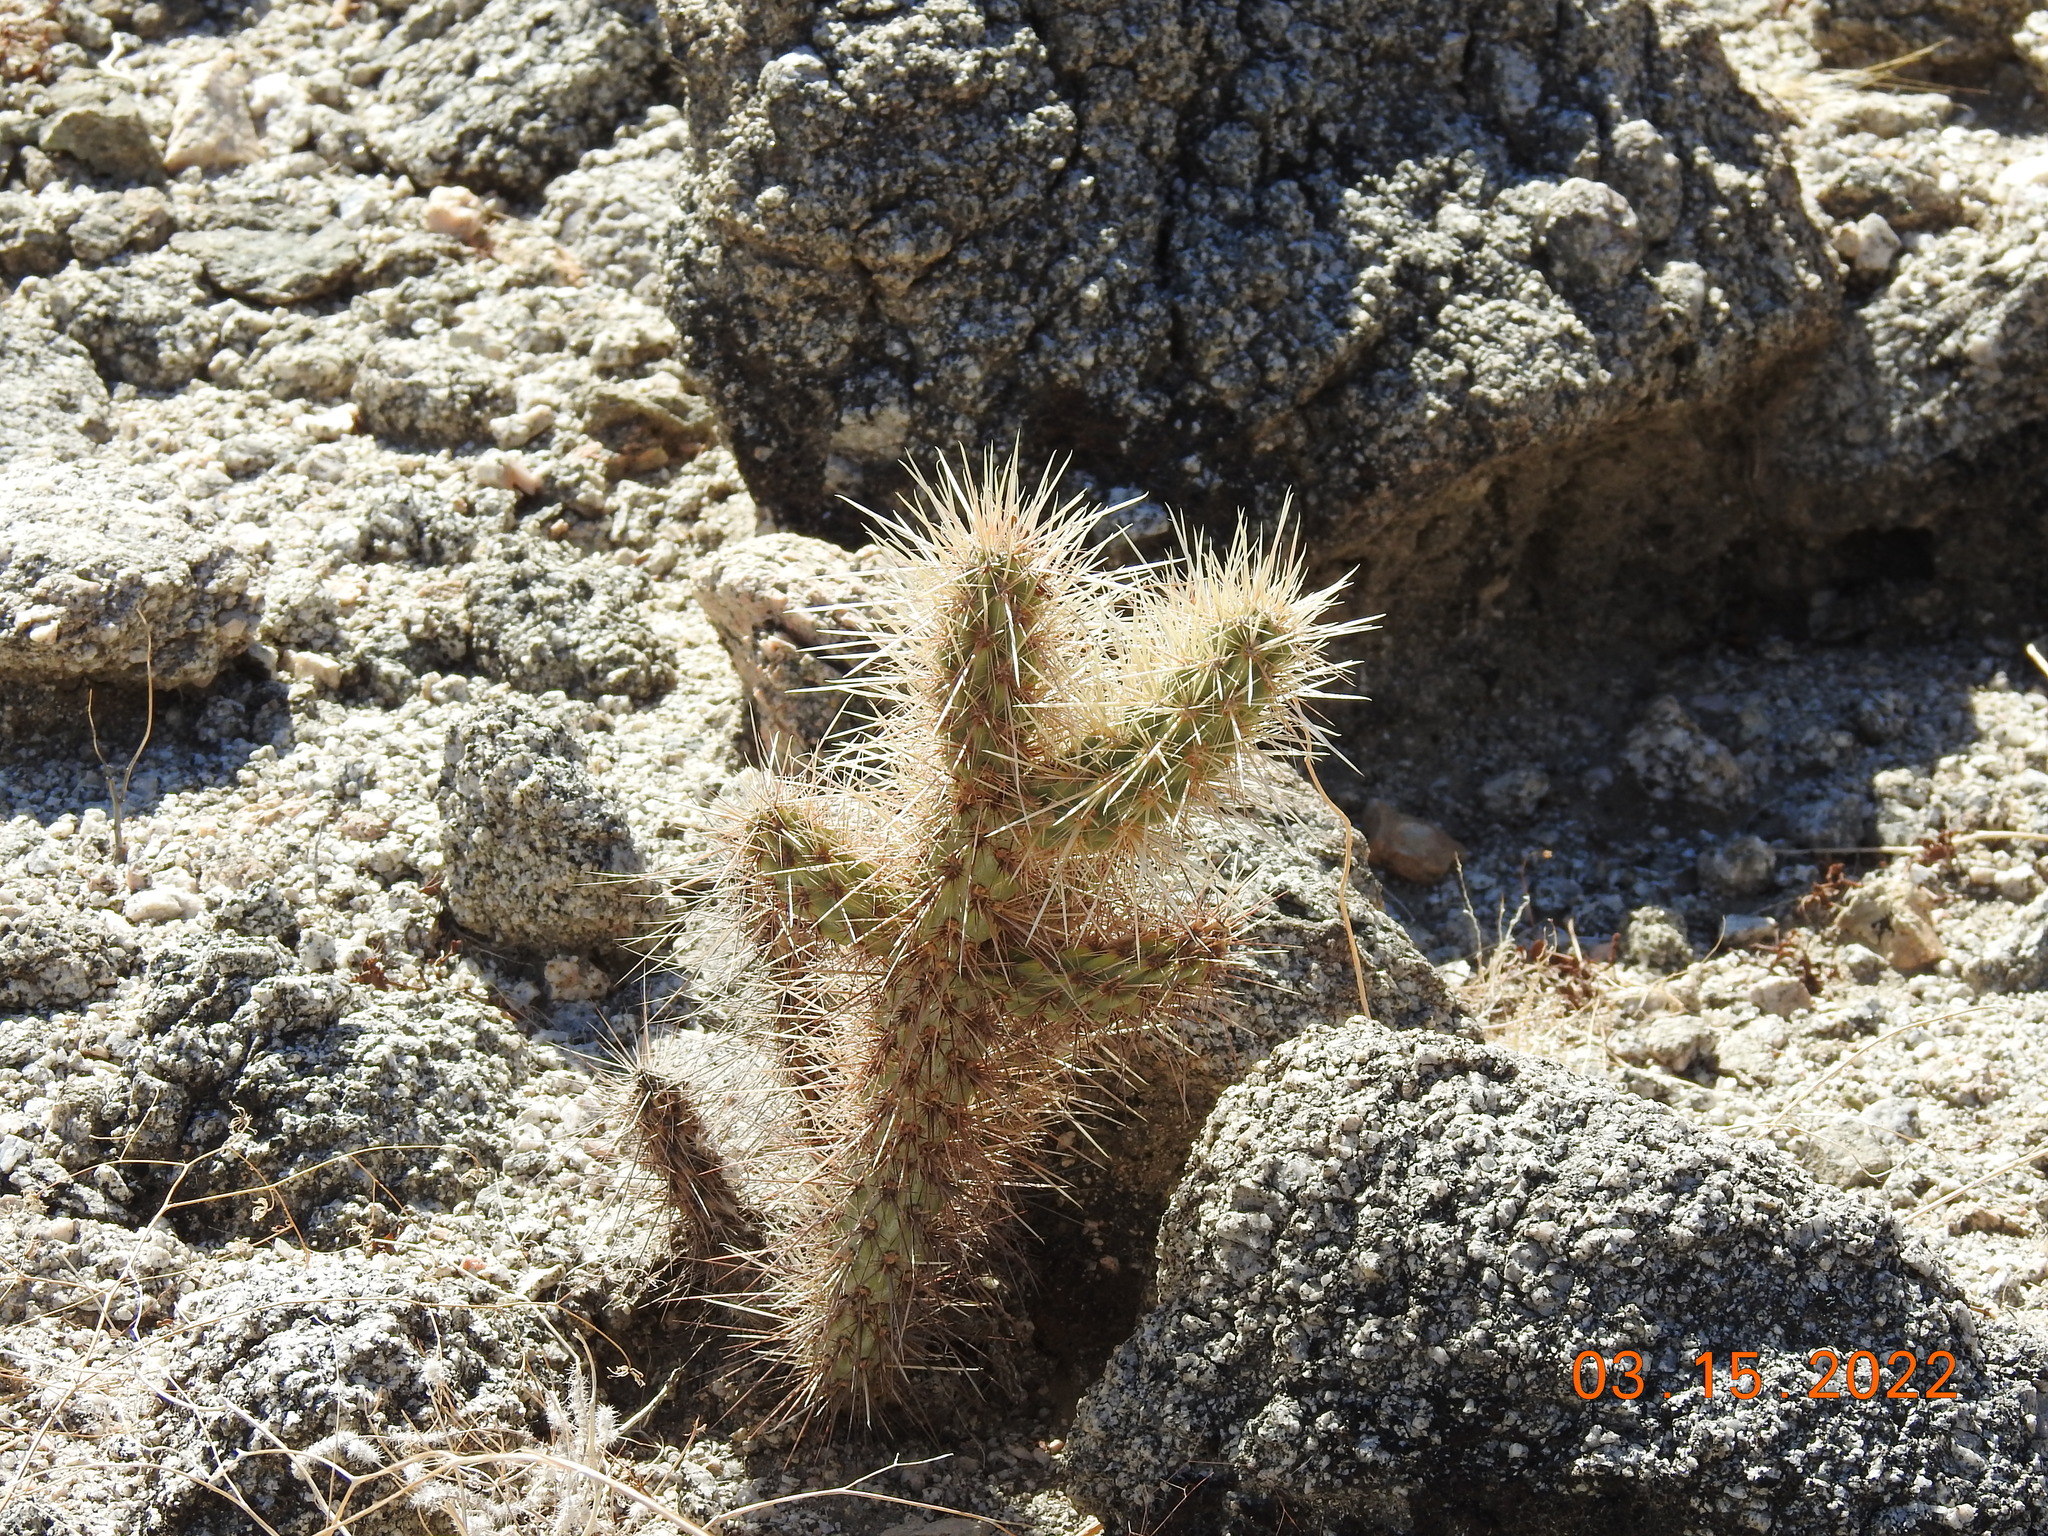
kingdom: Plantae
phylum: Tracheophyta
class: Magnoliopsida
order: Caryophyllales
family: Cactaceae
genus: Cylindropuntia
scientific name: Cylindropuntia echinocarpa
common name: Ground cholla
